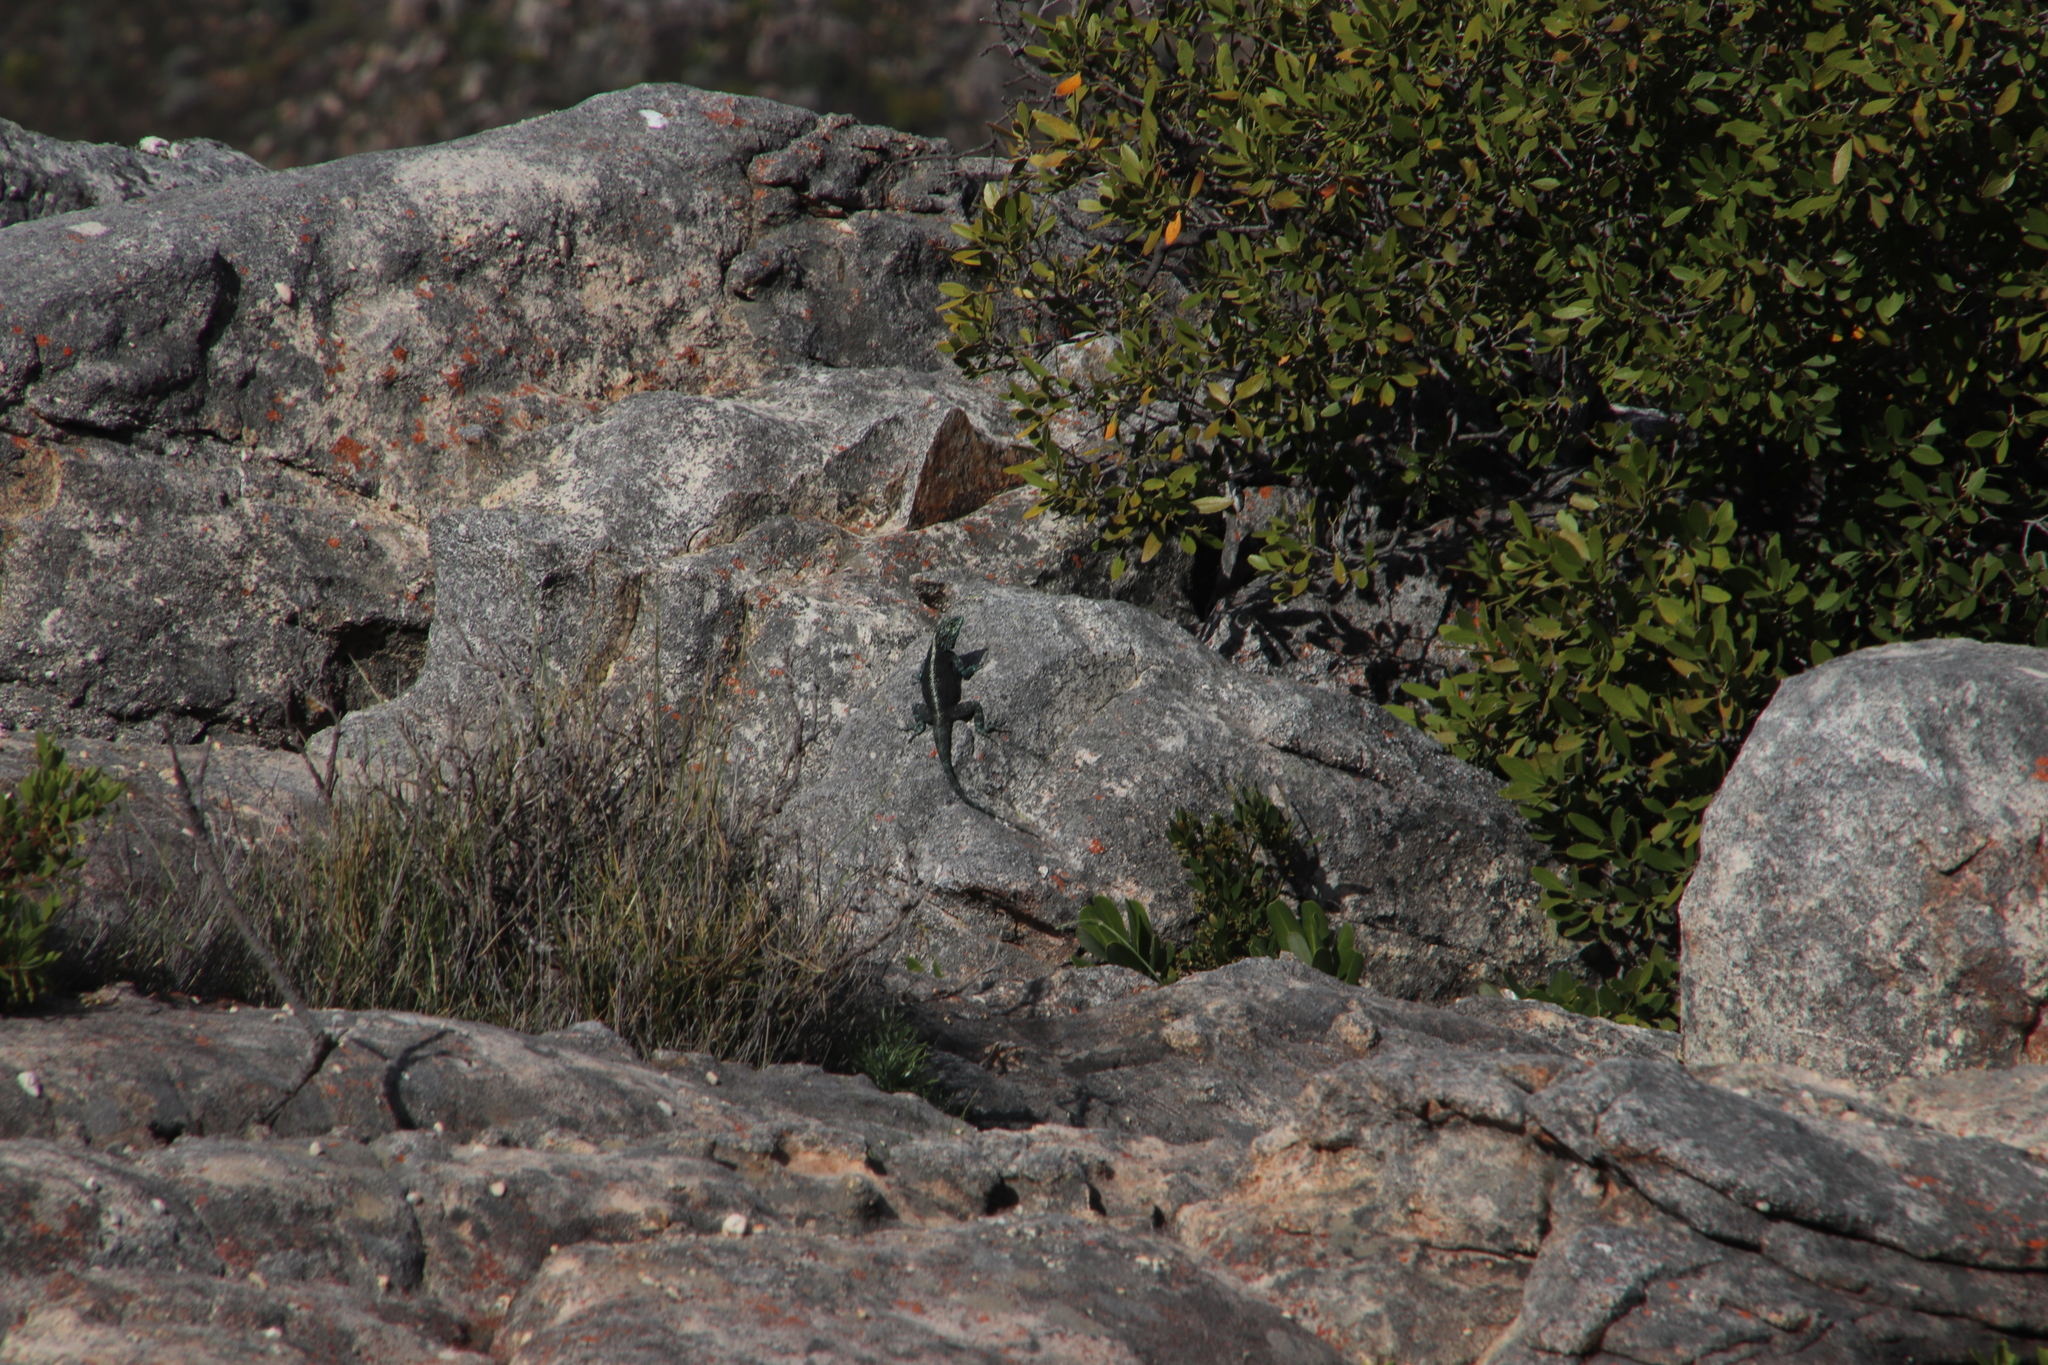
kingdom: Animalia
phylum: Chordata
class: Squamata
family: Agamidae
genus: Agama
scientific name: Agama atra
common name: Southern african rock agama
